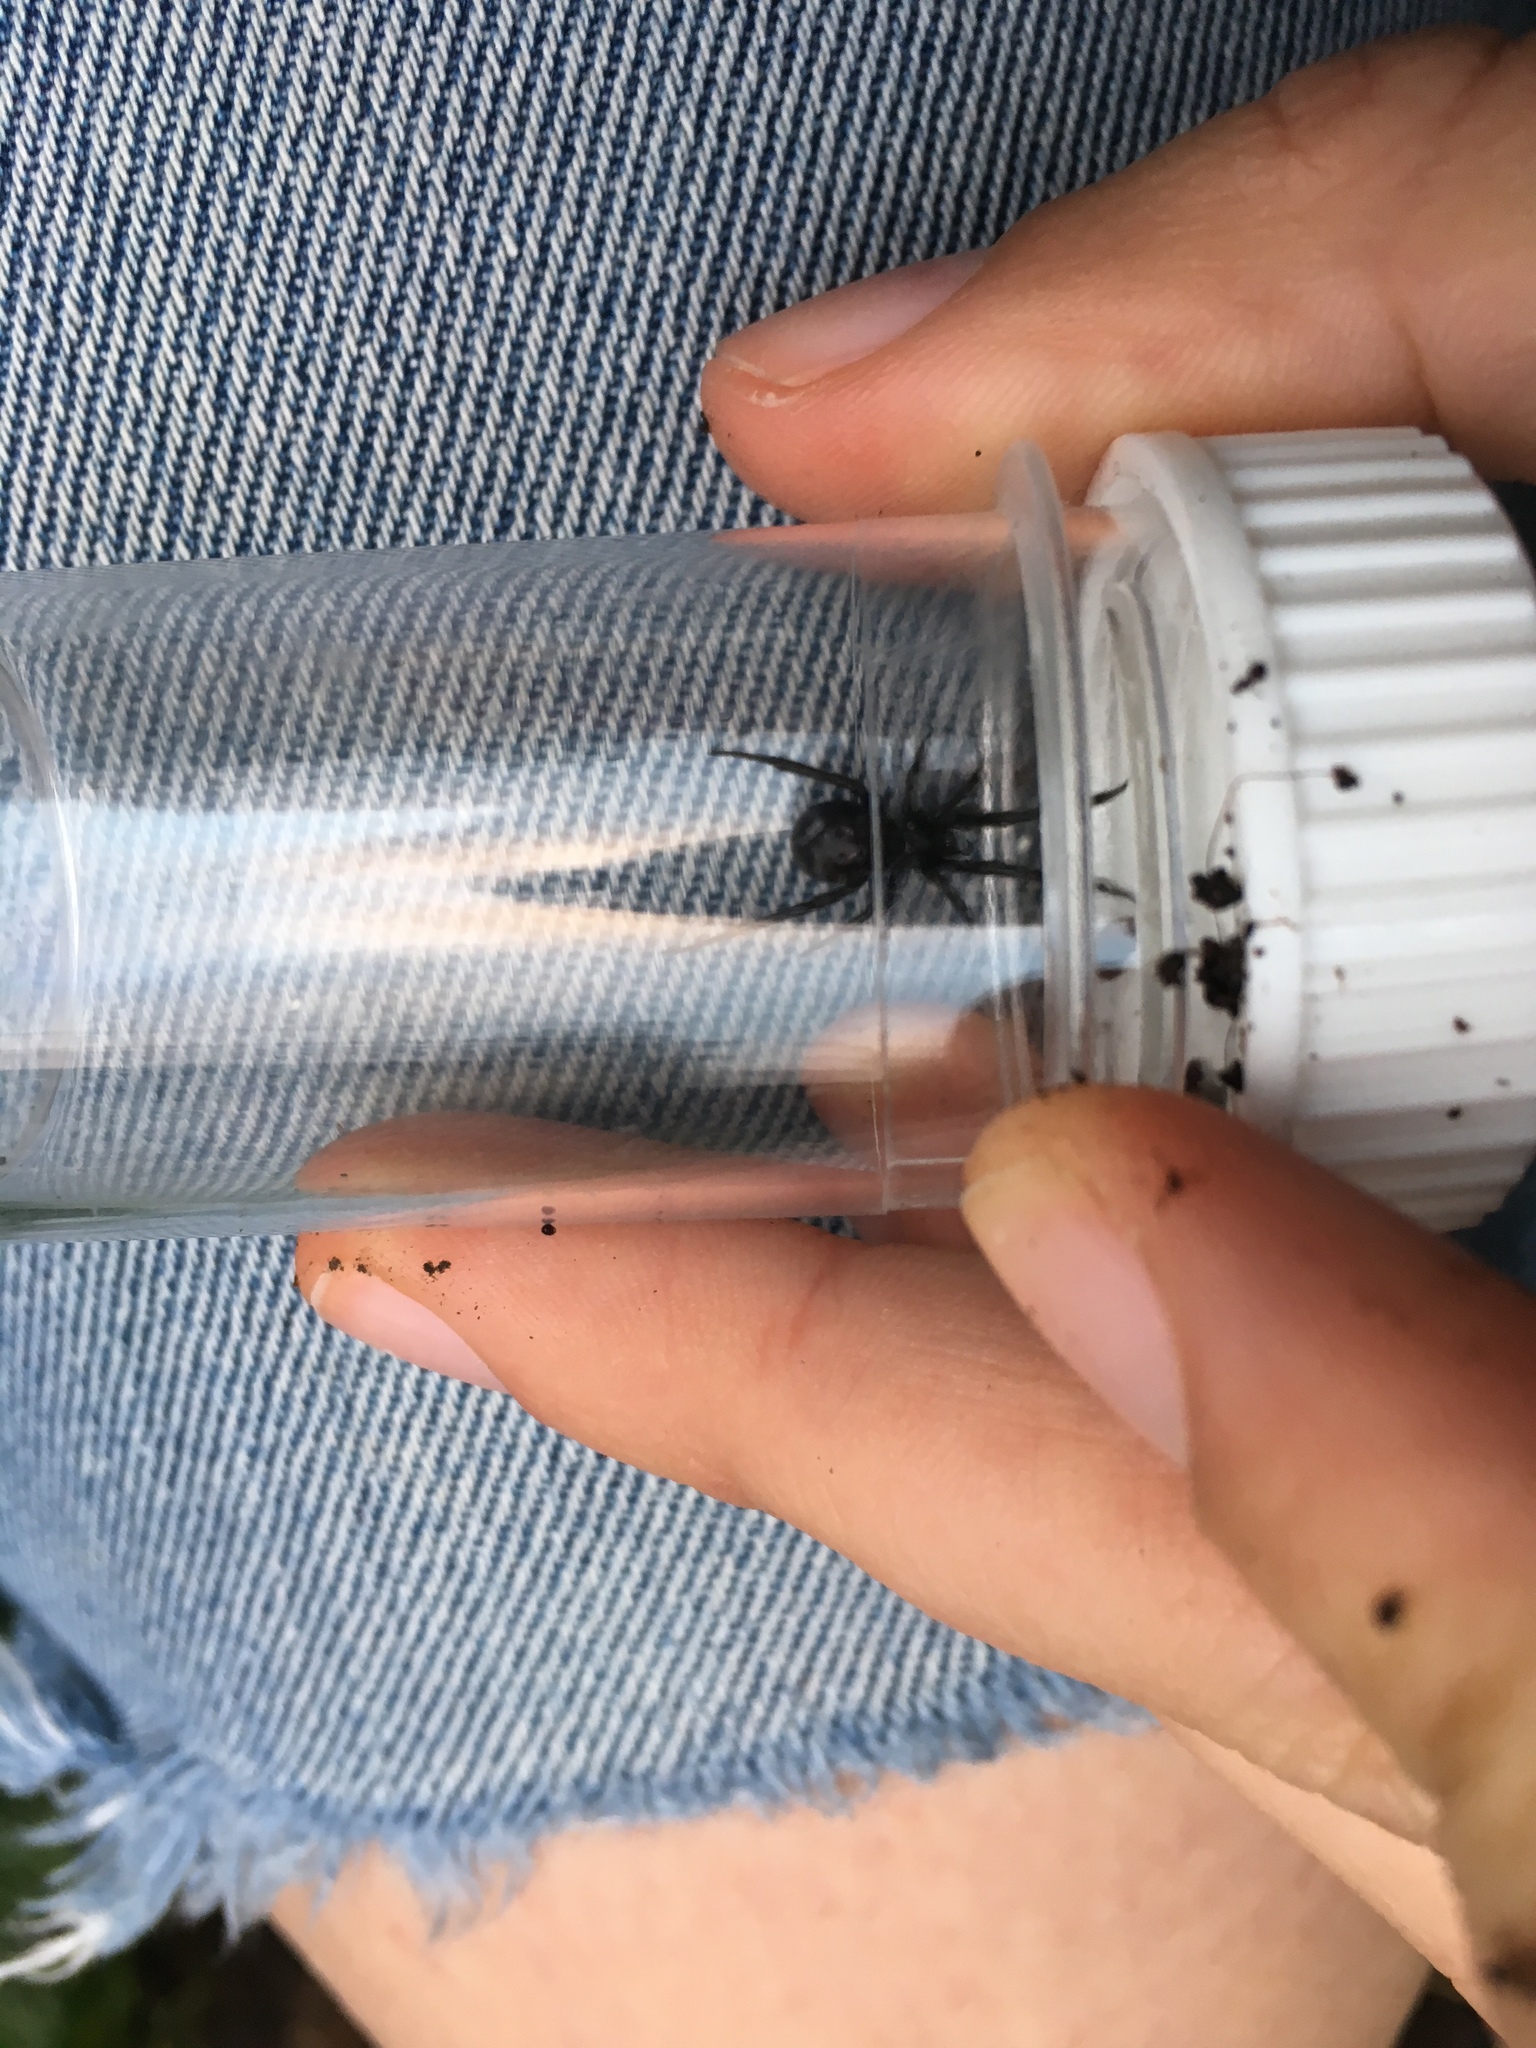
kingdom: Animalia
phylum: Arthropoda
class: Arachnida
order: Araneae
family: Theridiidae
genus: Steatoda
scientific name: Steatoda capensis
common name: Cobweb weaver
